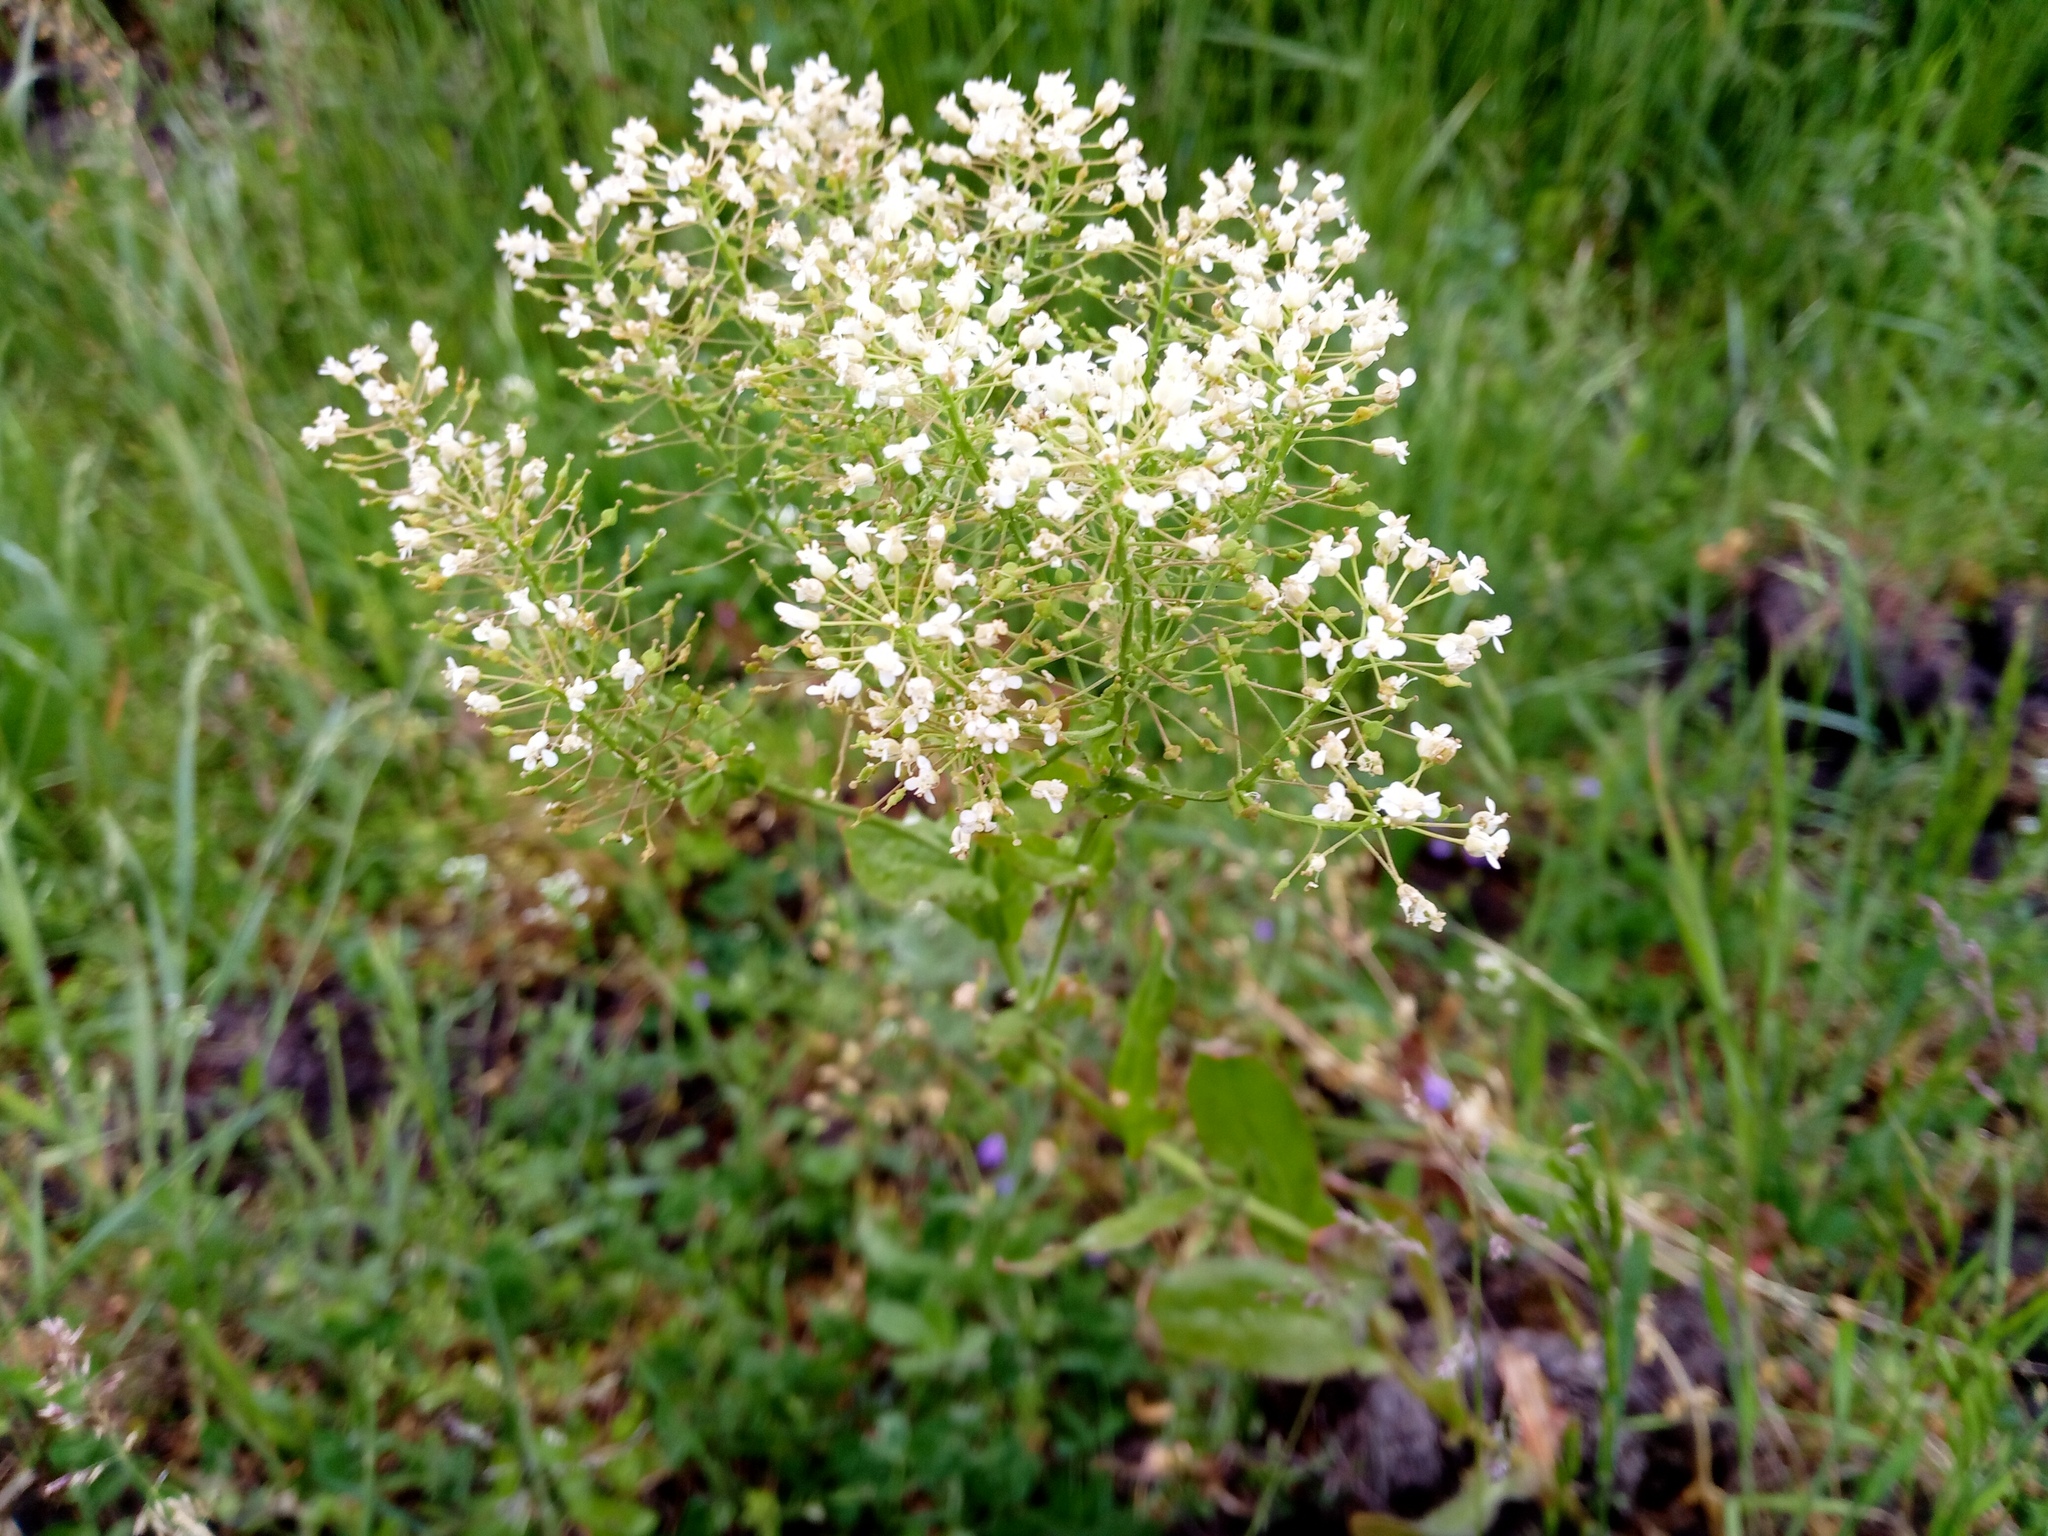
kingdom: Plantae
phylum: Tracheophyta
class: Magnoliopsida
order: Brassicales
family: Brassicaceae
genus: Lepidium
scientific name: Lepidium draba
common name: Hoary cress
